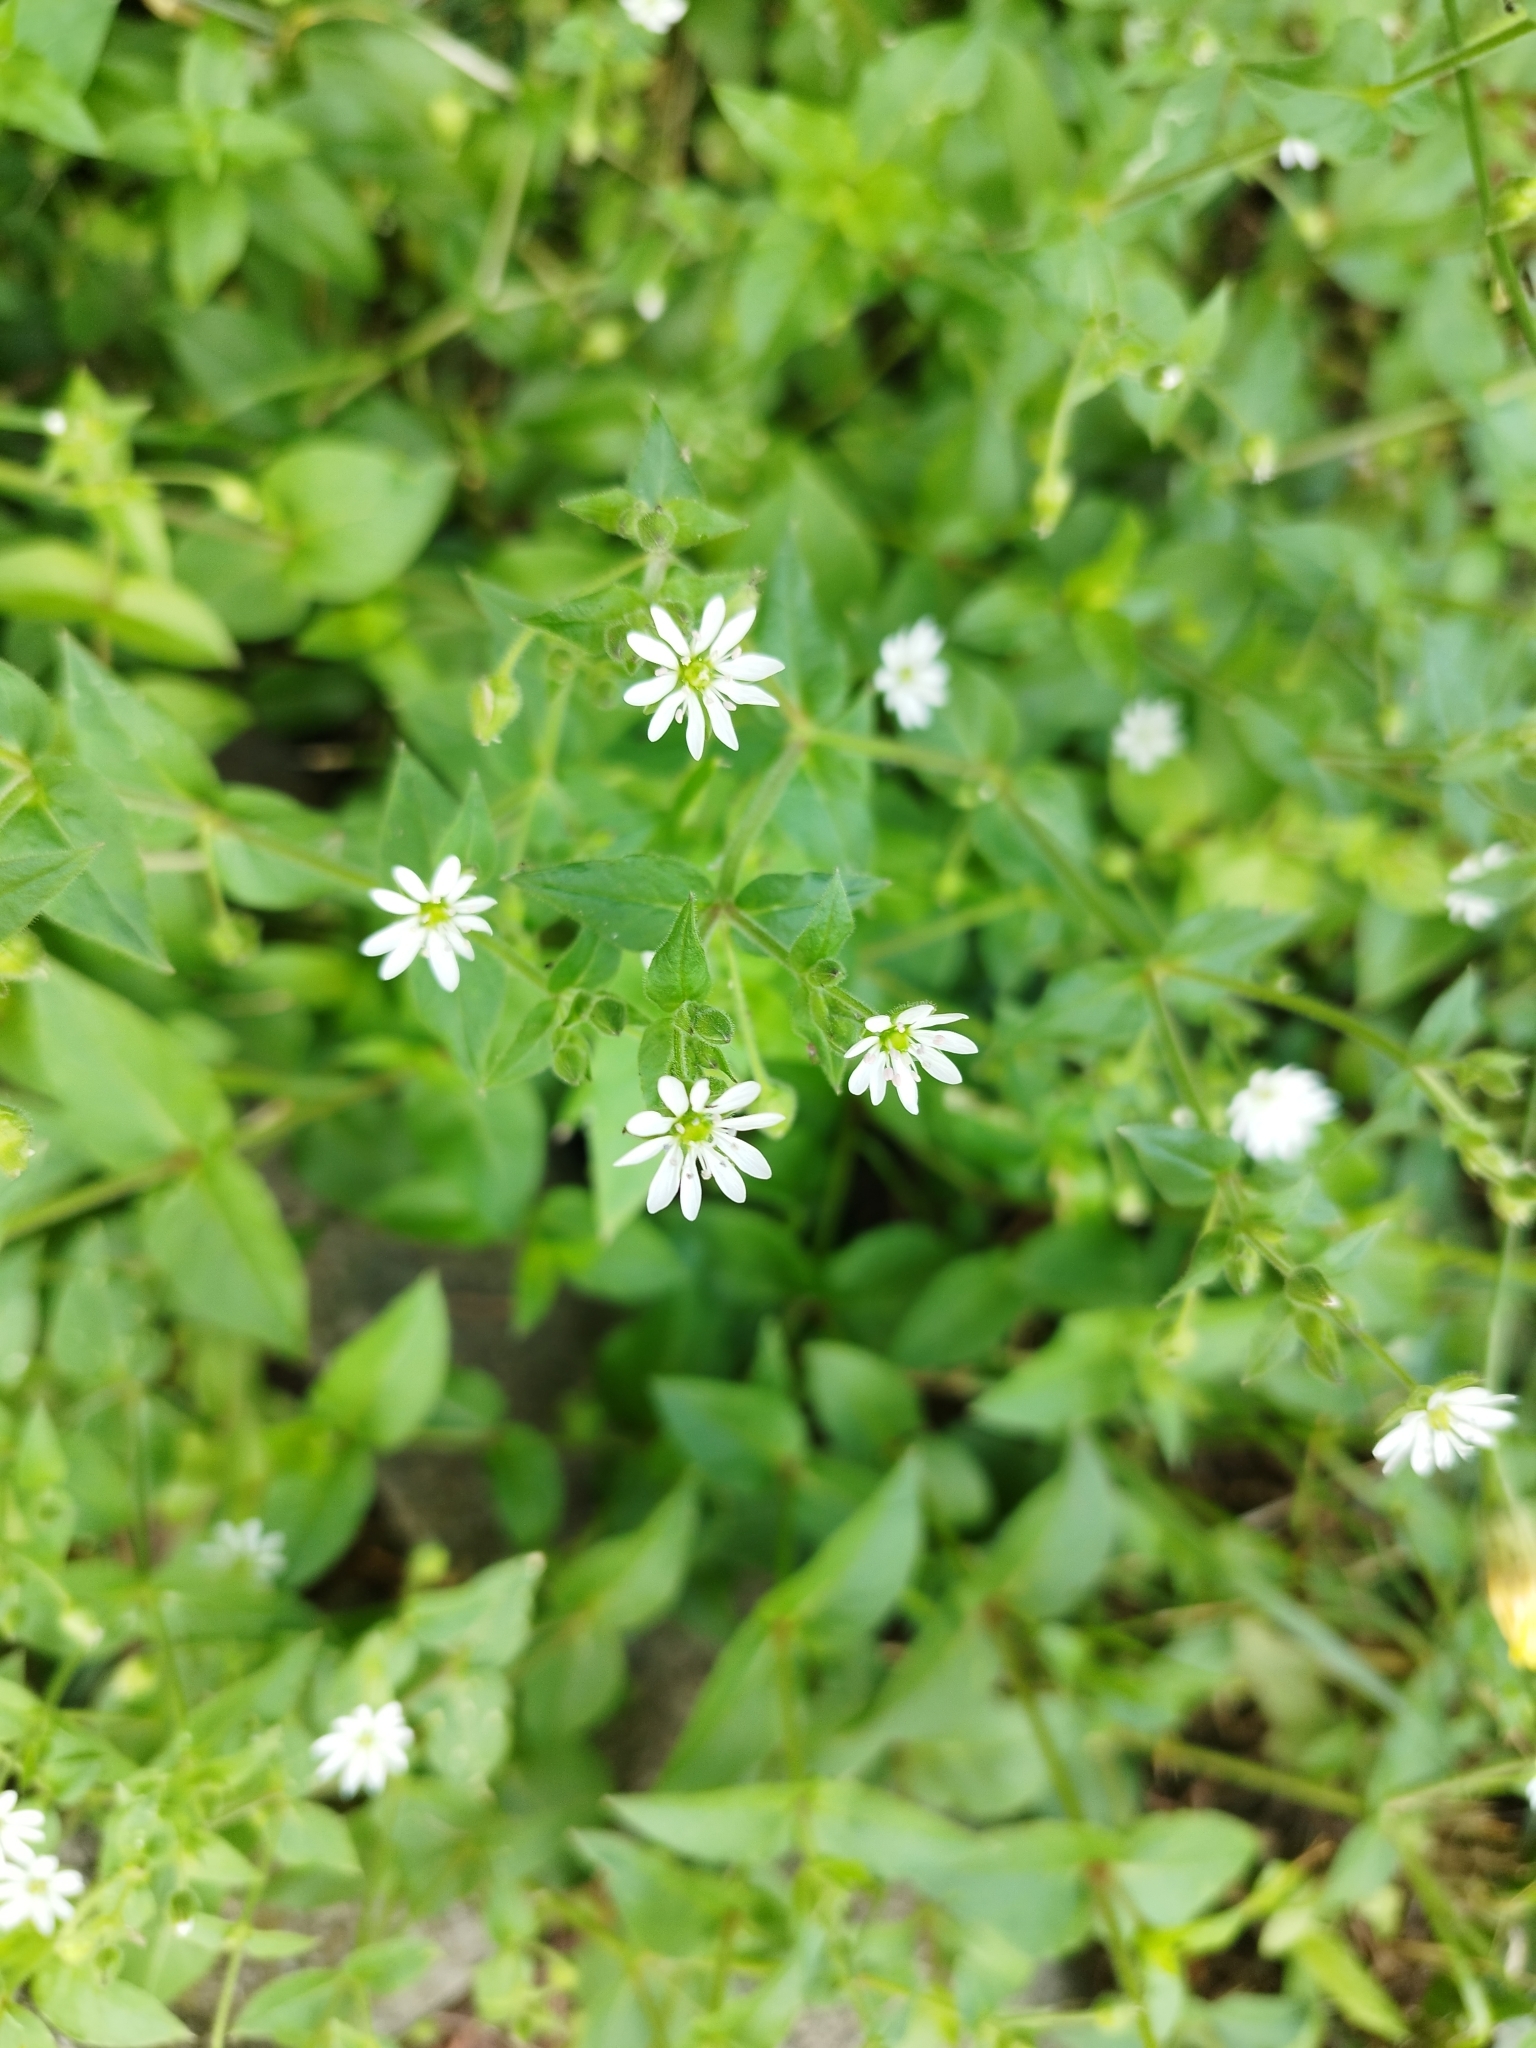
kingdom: Plantae
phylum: Tracheophyta
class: Magnoliopsida
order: Caryophyllales
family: Caryophyllaceae
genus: Stellaria
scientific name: Stellaria aquatica
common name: Water chickweed
